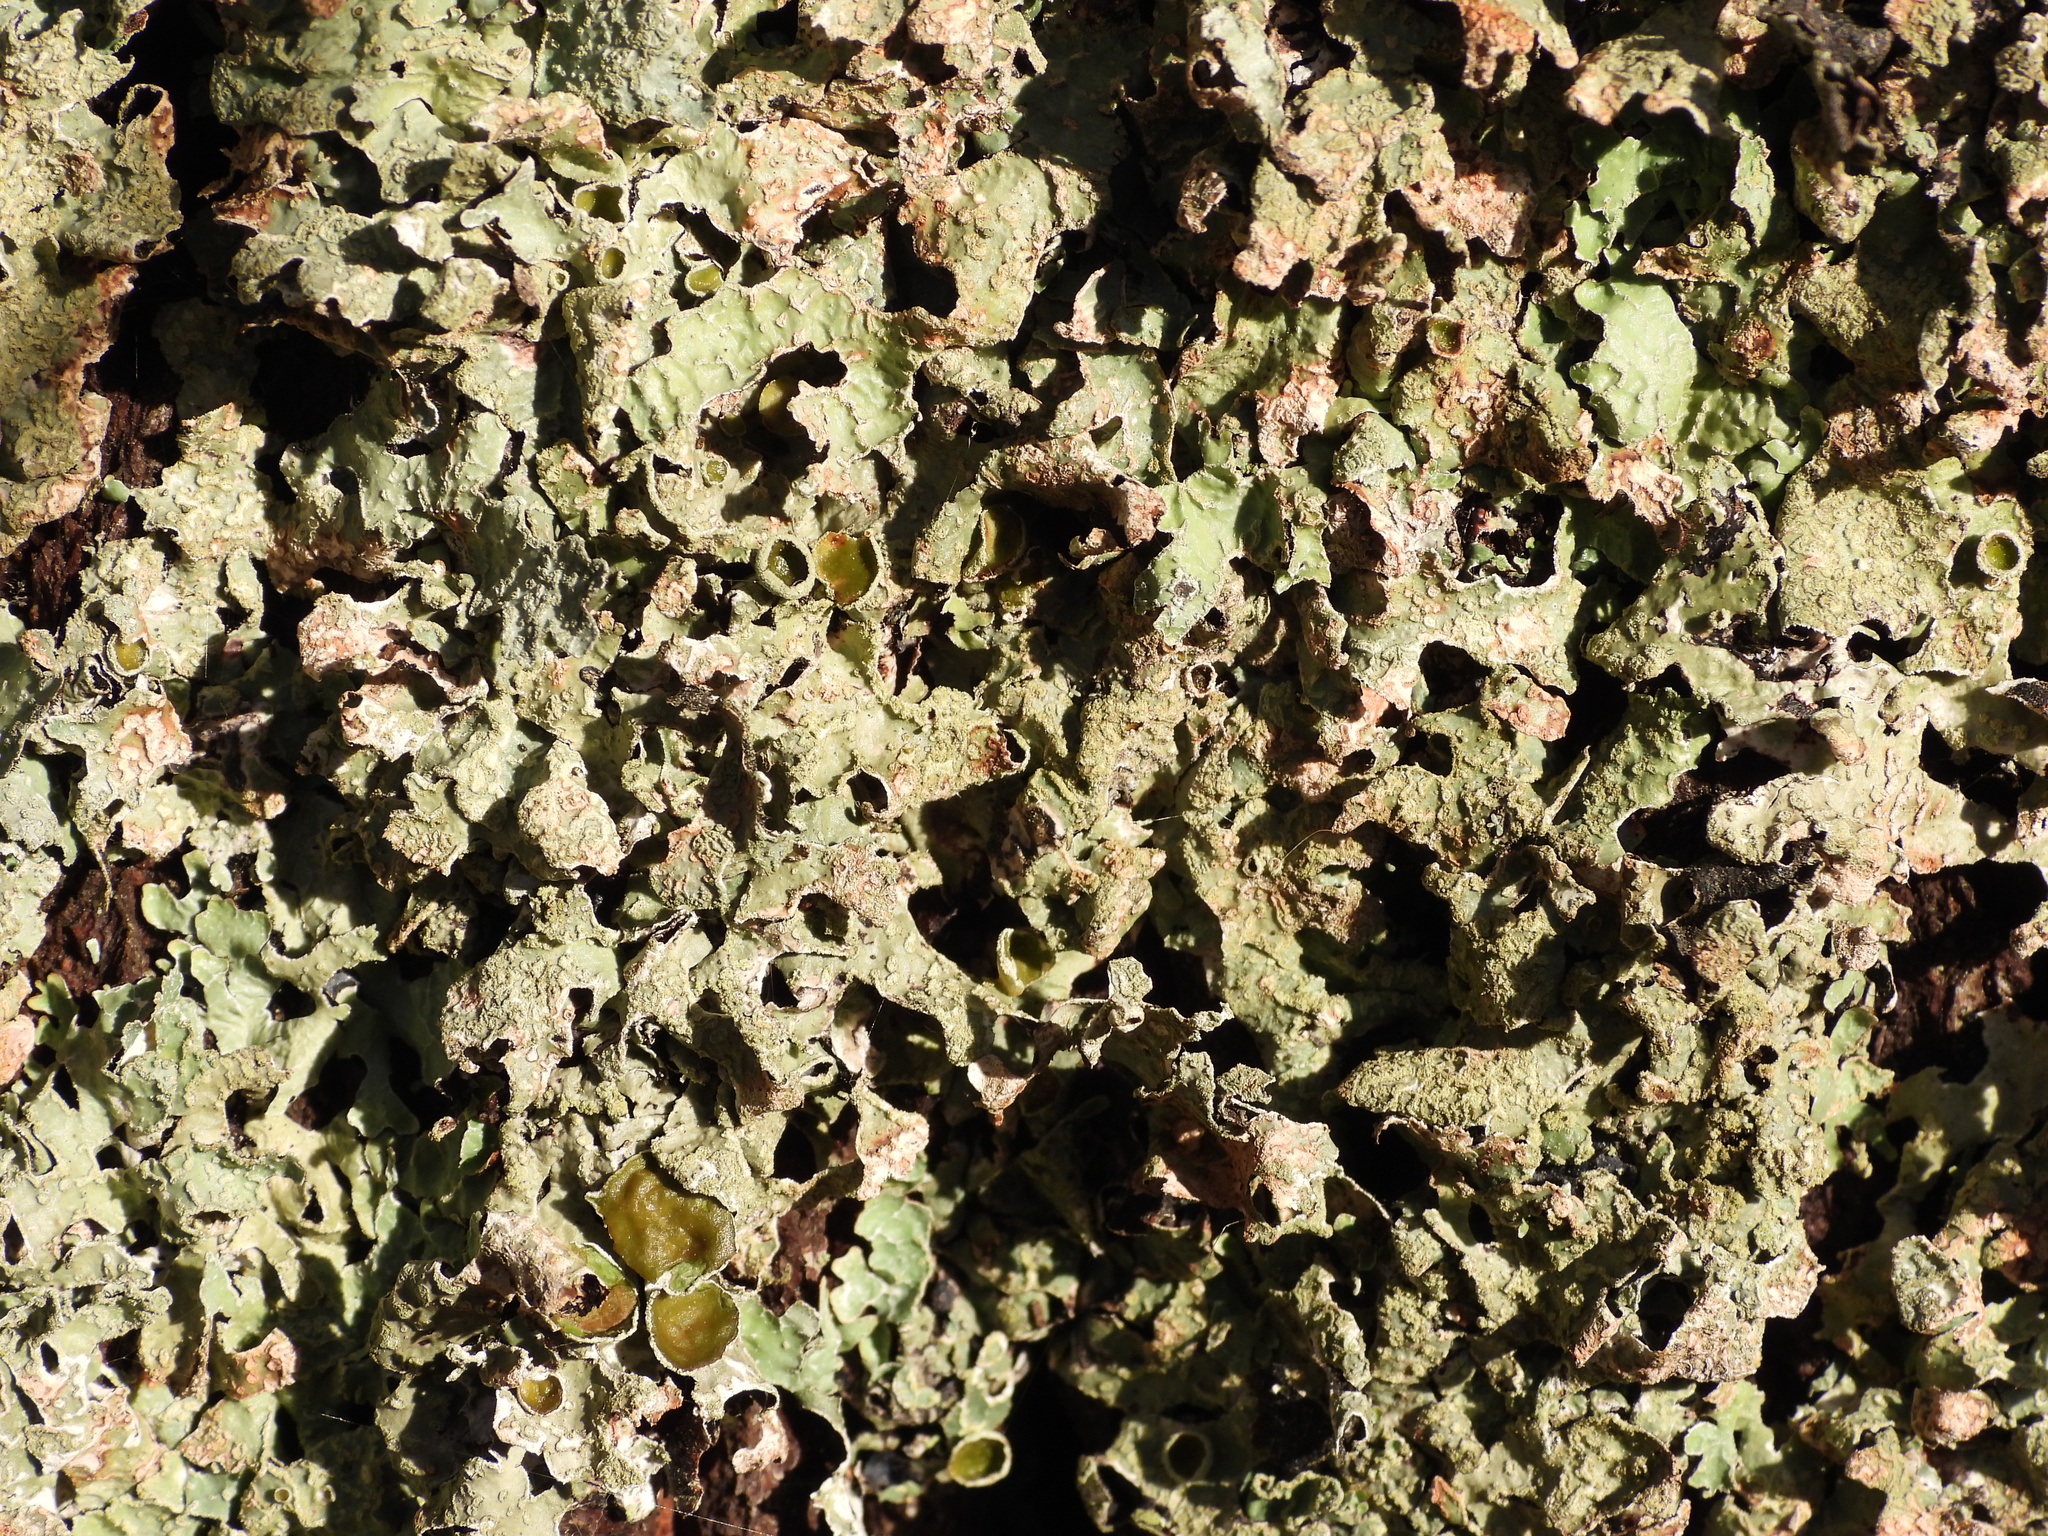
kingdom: Fungi
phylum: Ascomycota
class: Lecanoromycetes
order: Lecanorales
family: Parmeliaceae
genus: Parmelia
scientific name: Parmelia sulcata
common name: Netted shield lichen
